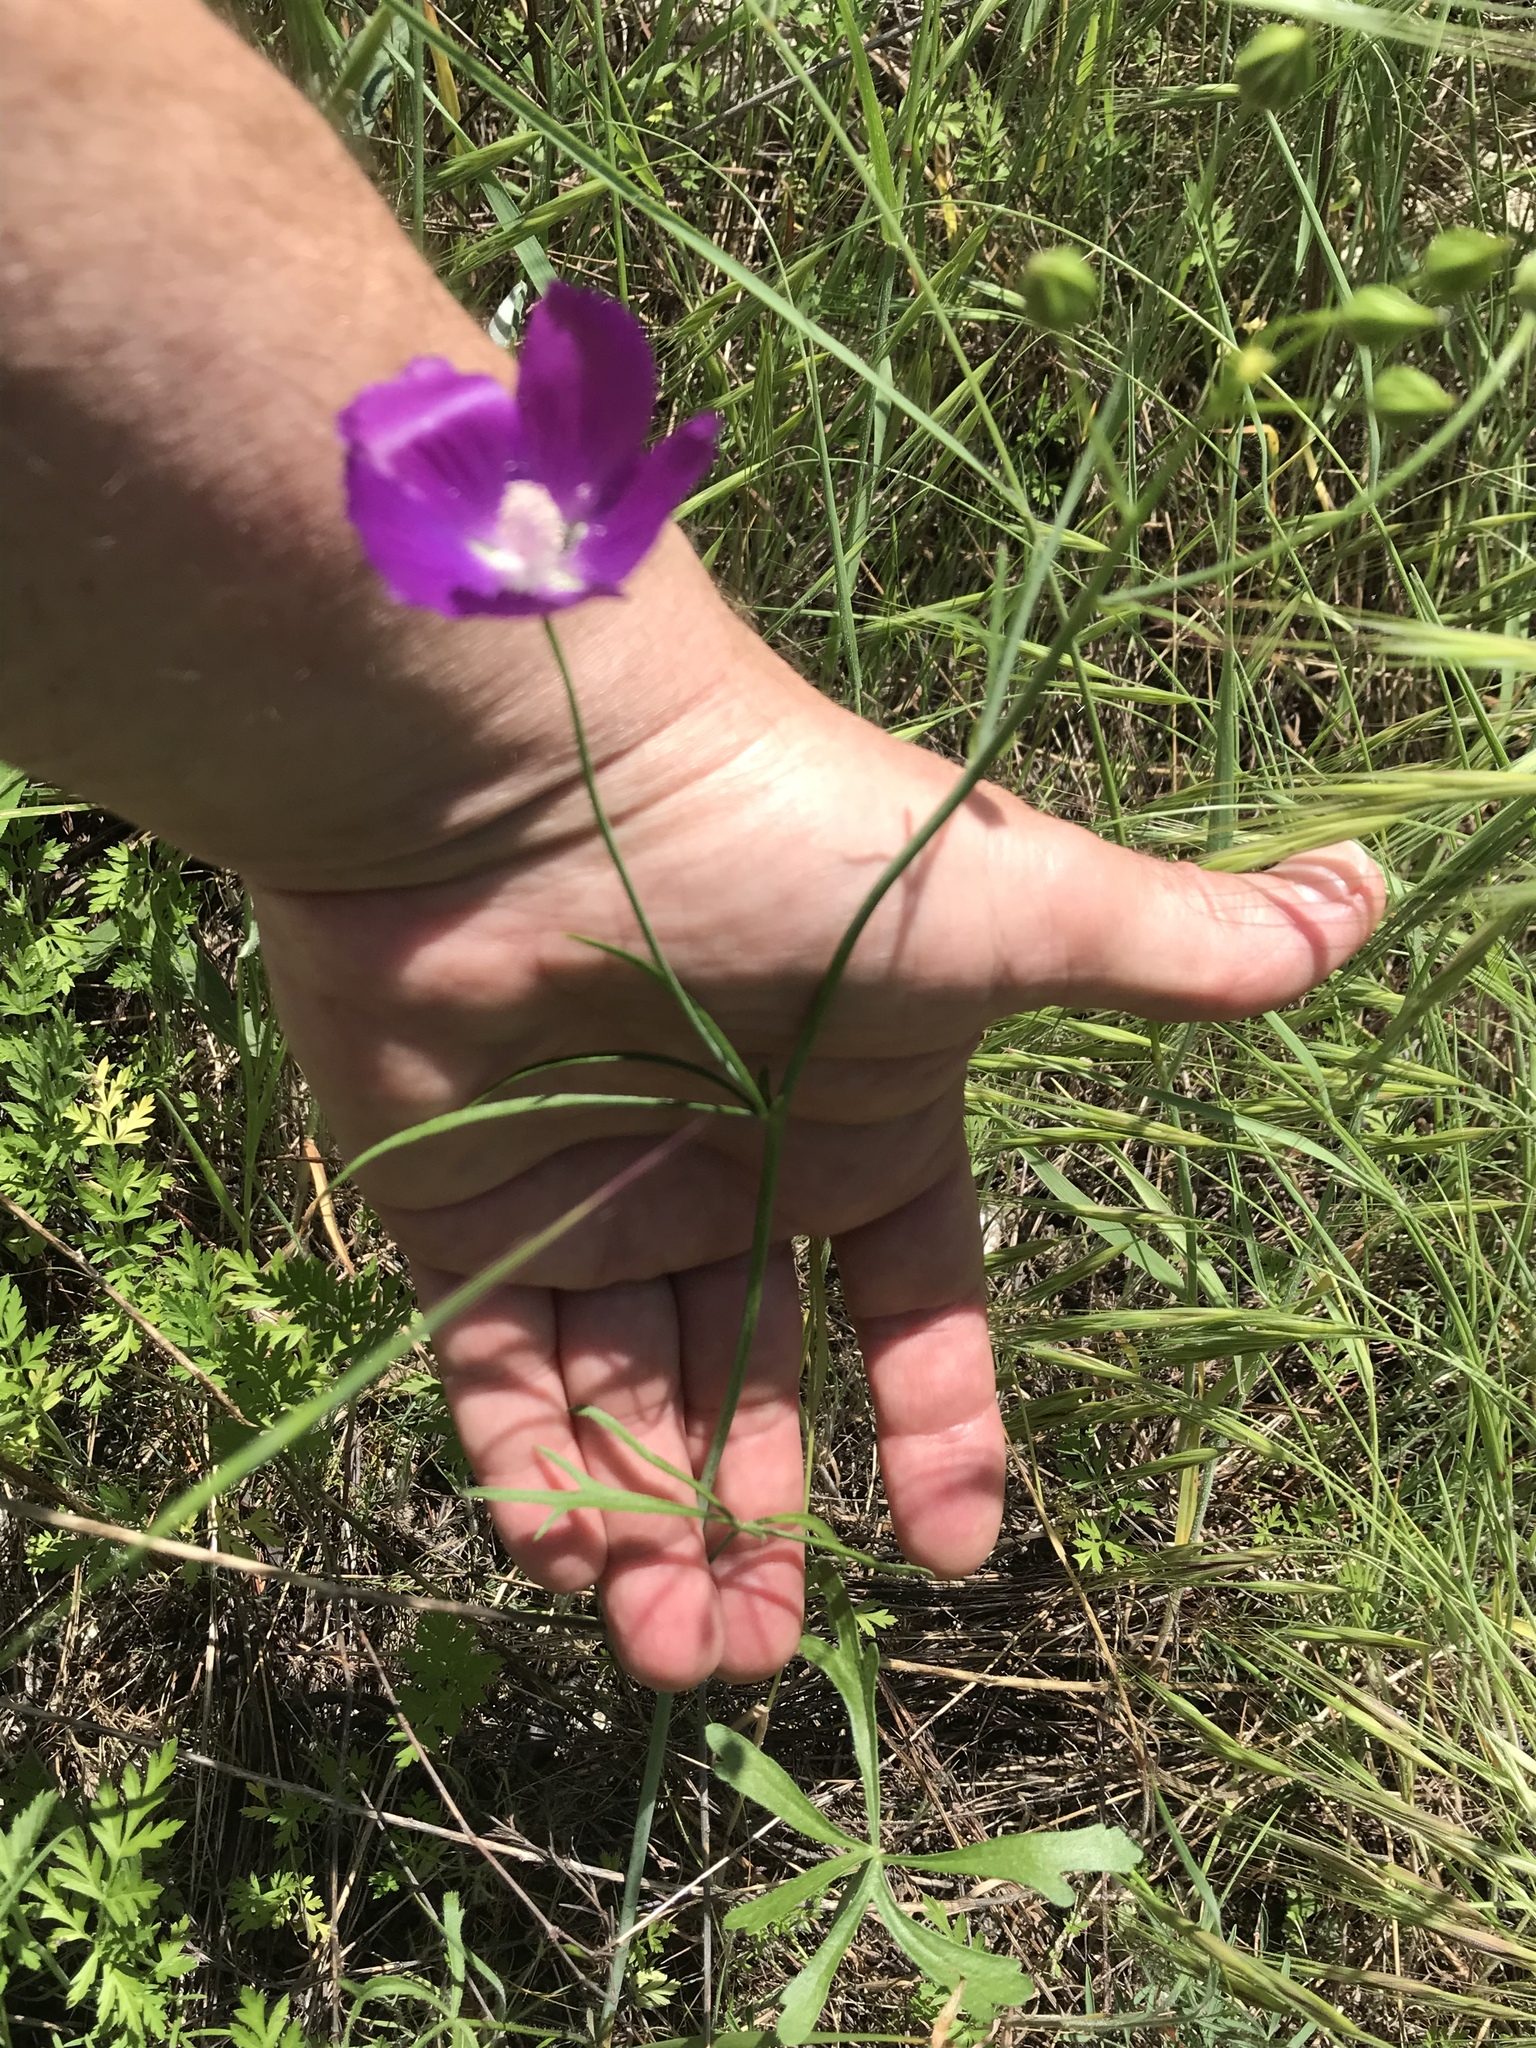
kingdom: Plantae
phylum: Tracheophyta
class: Magnoliopsida
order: Malvales
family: Malvaceae
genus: Callirhoe
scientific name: Callirhoe pedata
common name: Finger poppy-mallow
